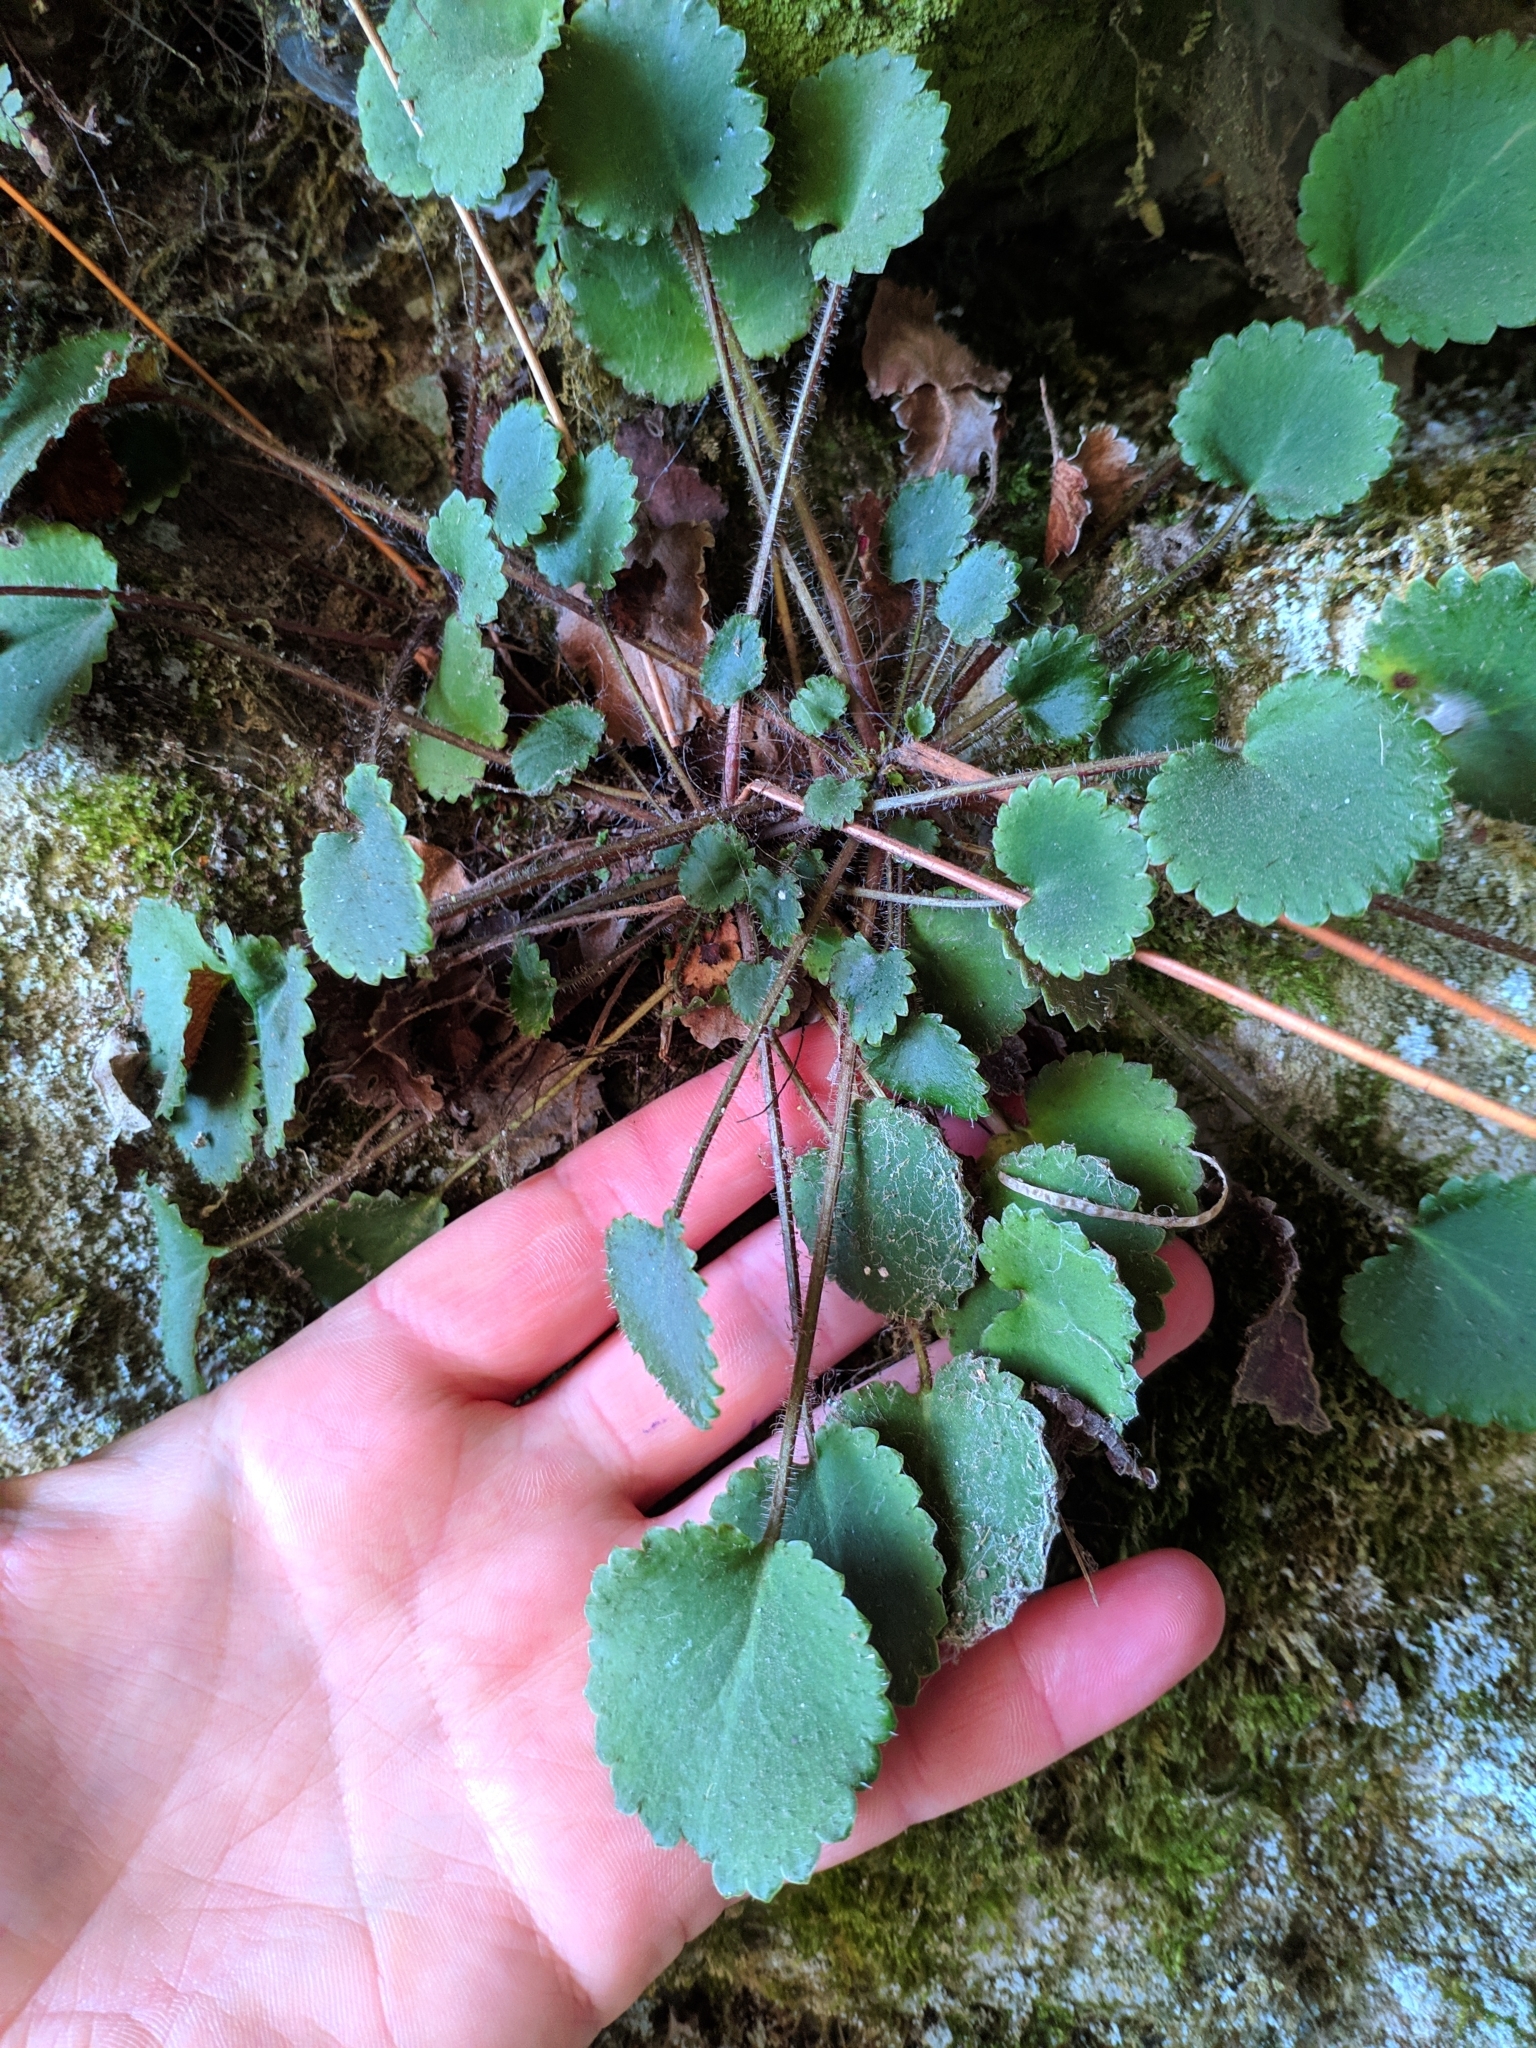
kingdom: Plantae
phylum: Tracheophyta
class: Magnoliopsida
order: Saxifragales
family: Saxifragaceae
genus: Saxifraga
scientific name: Saxifraga hirsuta
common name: Kidney saxifrage
